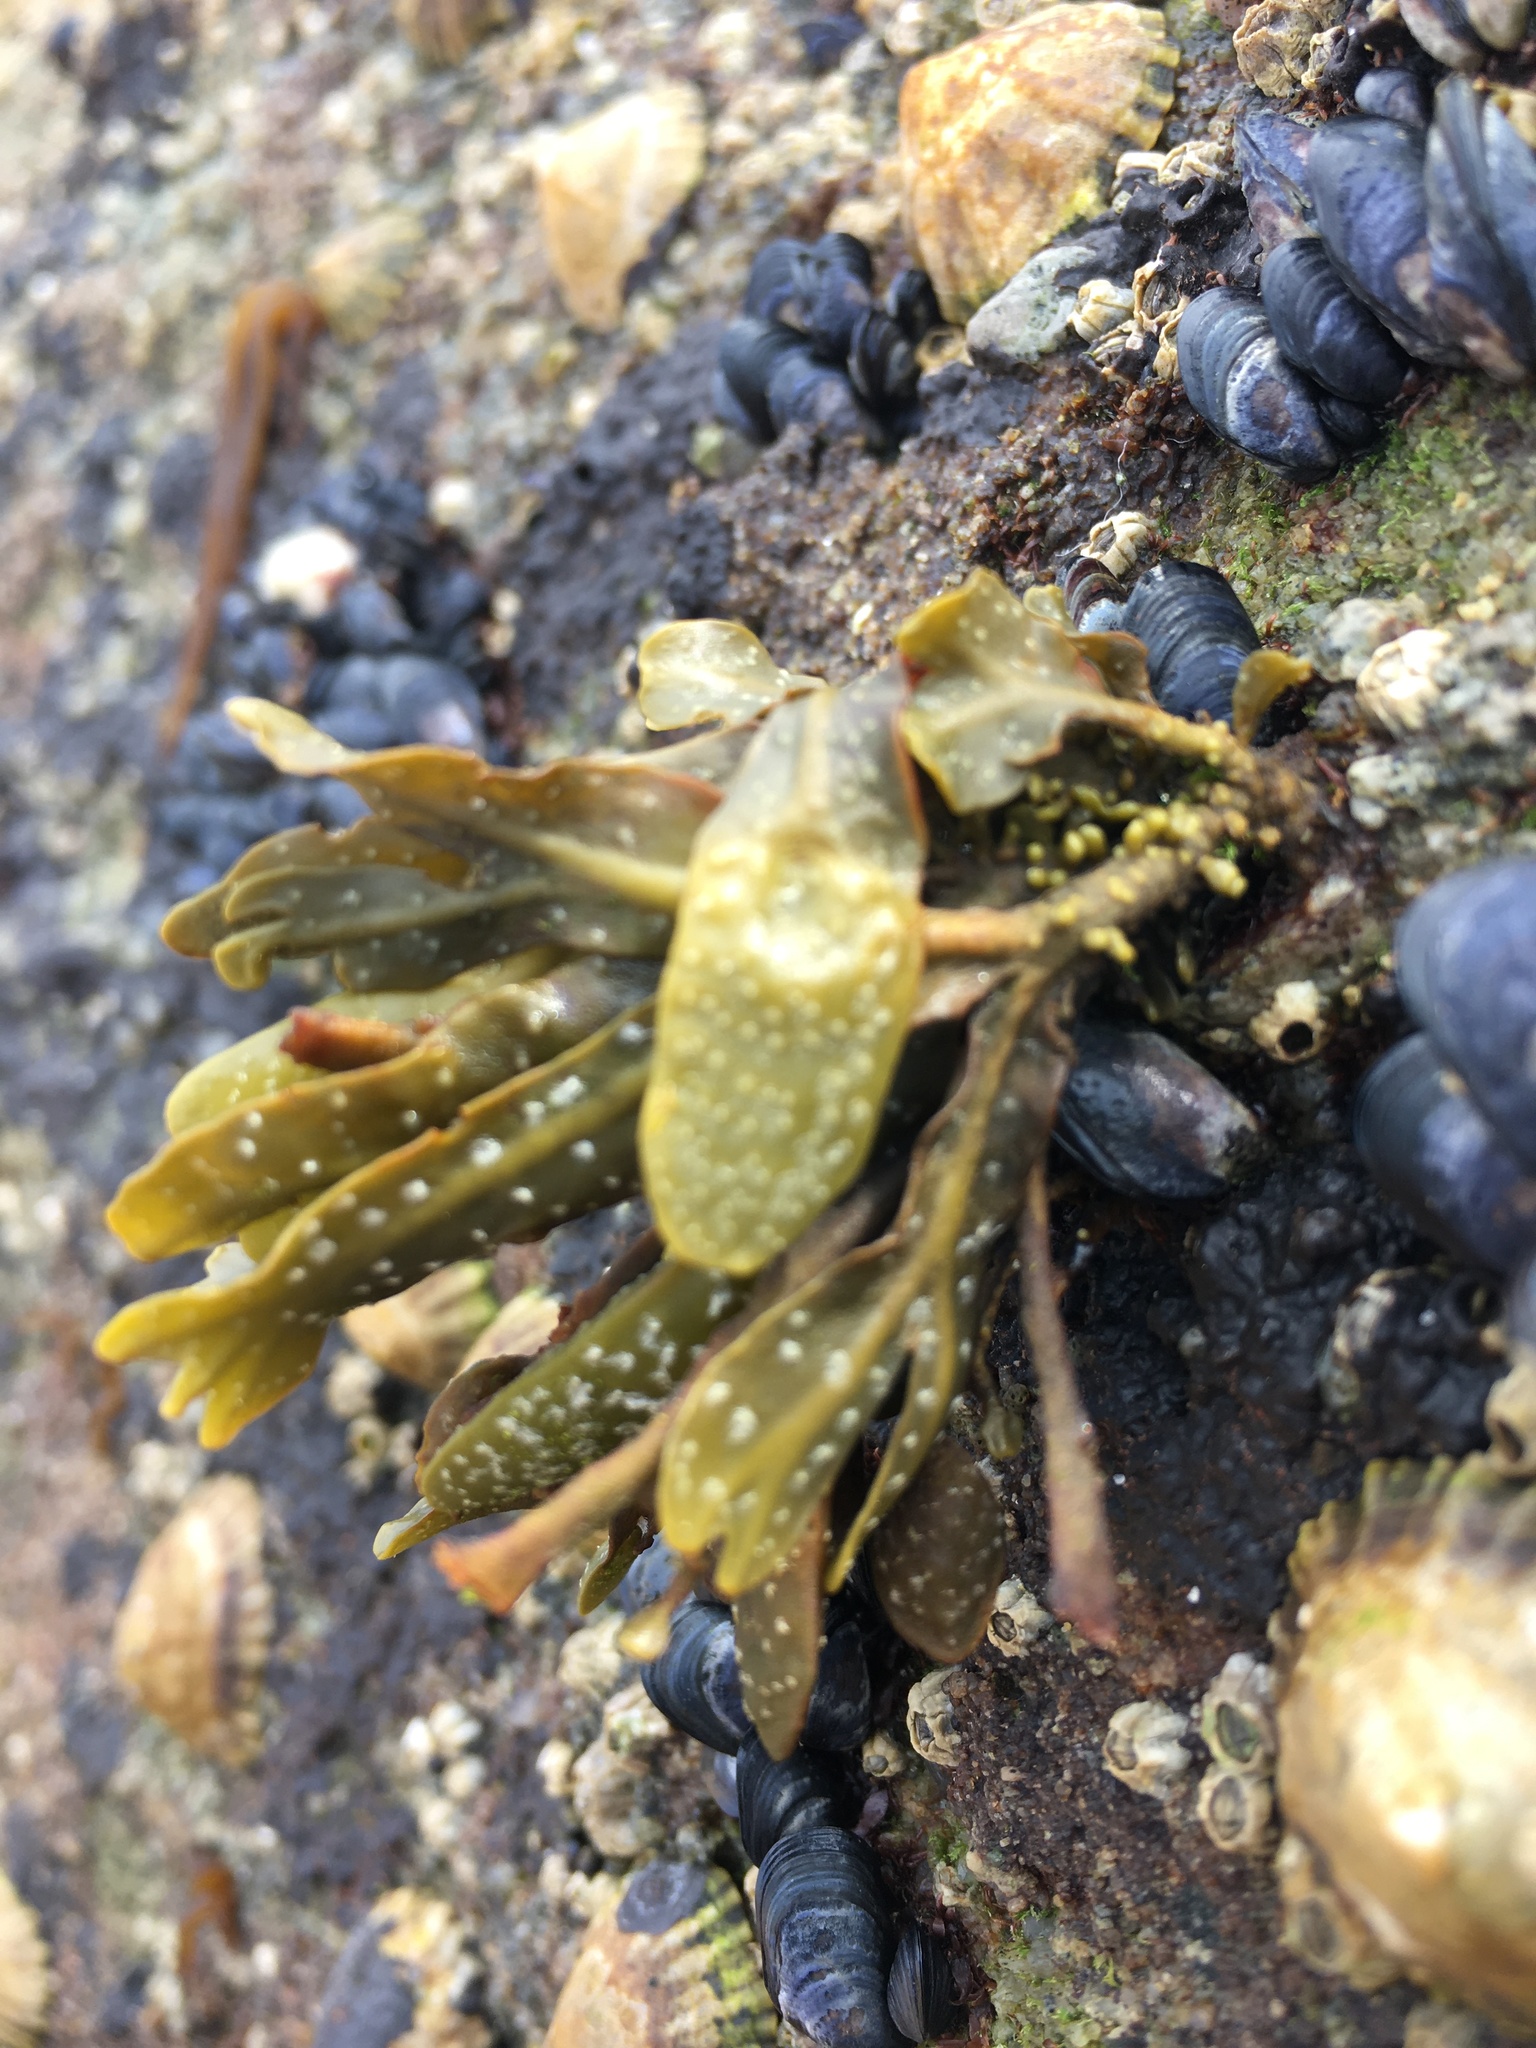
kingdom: Chromista
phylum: Ochrophyta
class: Phaeophyceae
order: Fucales
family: Fucaceae
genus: Fucus
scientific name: Fucus guiryi
